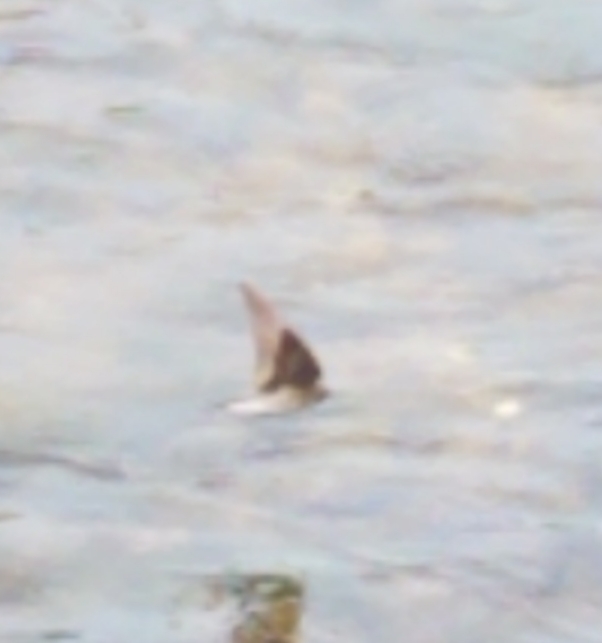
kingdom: Animalia
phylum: Chordata
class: Aves
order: Passeriformes
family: Hirundinidae
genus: Stelgidopteryx
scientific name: Stelgidopteryx serripennis
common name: Northern rough-winged swallow
